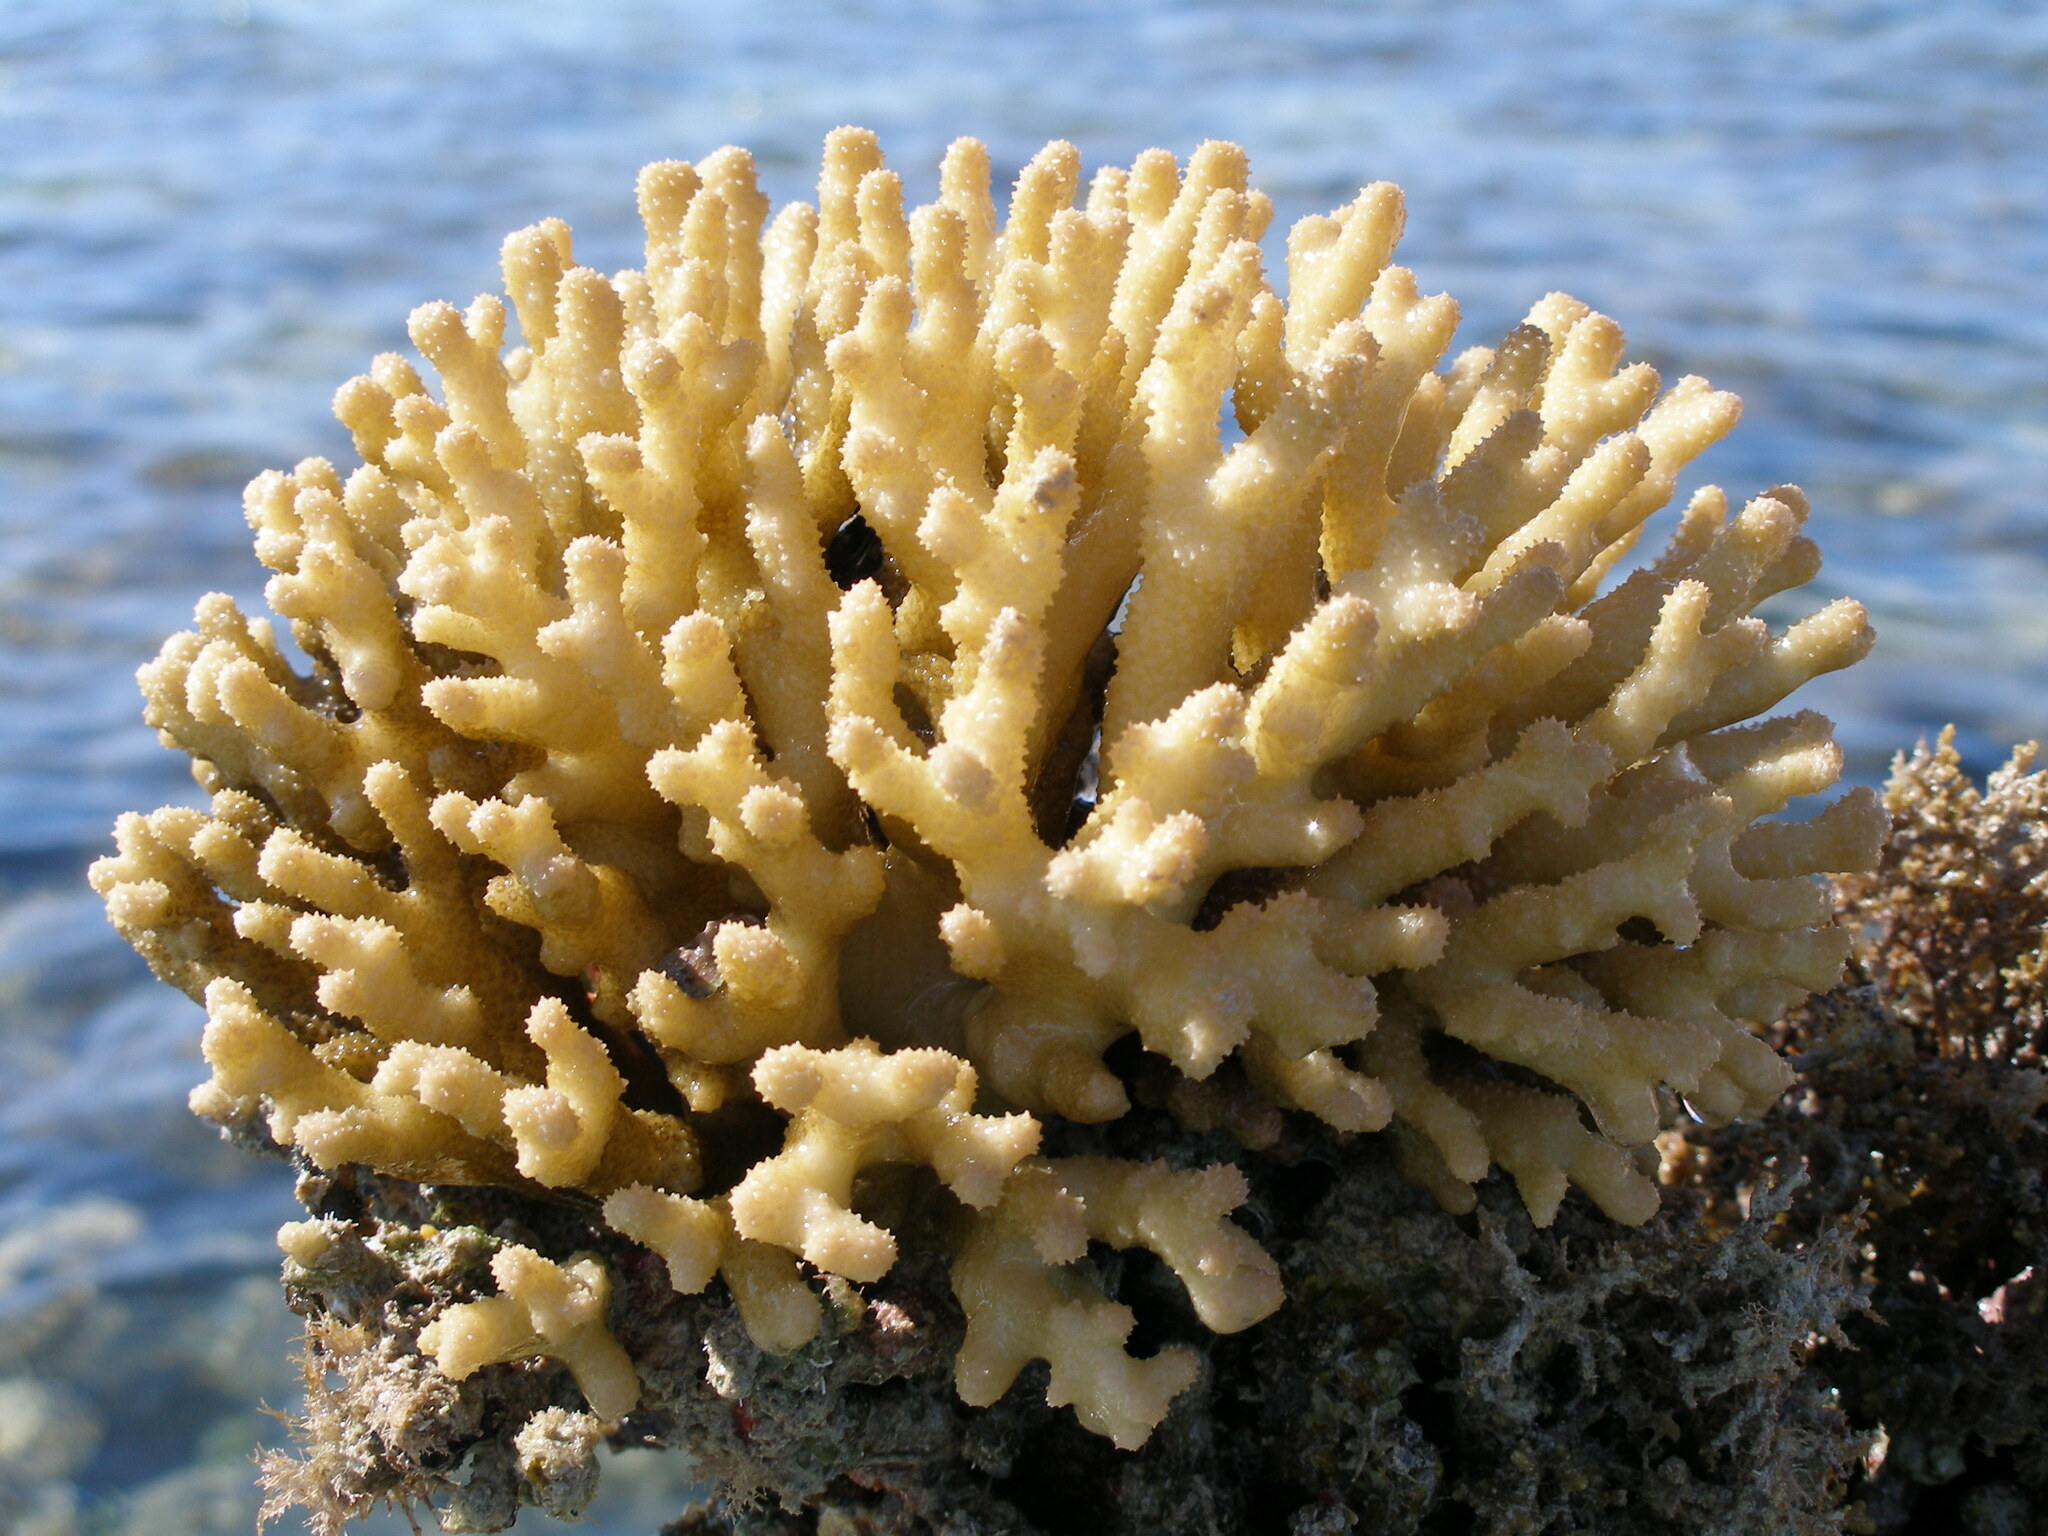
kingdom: Animalia
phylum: Cnidaria
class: Anthozoa
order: Scleractinia
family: Pocilloporidae
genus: Stylophora
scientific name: Stylophora subseriata
